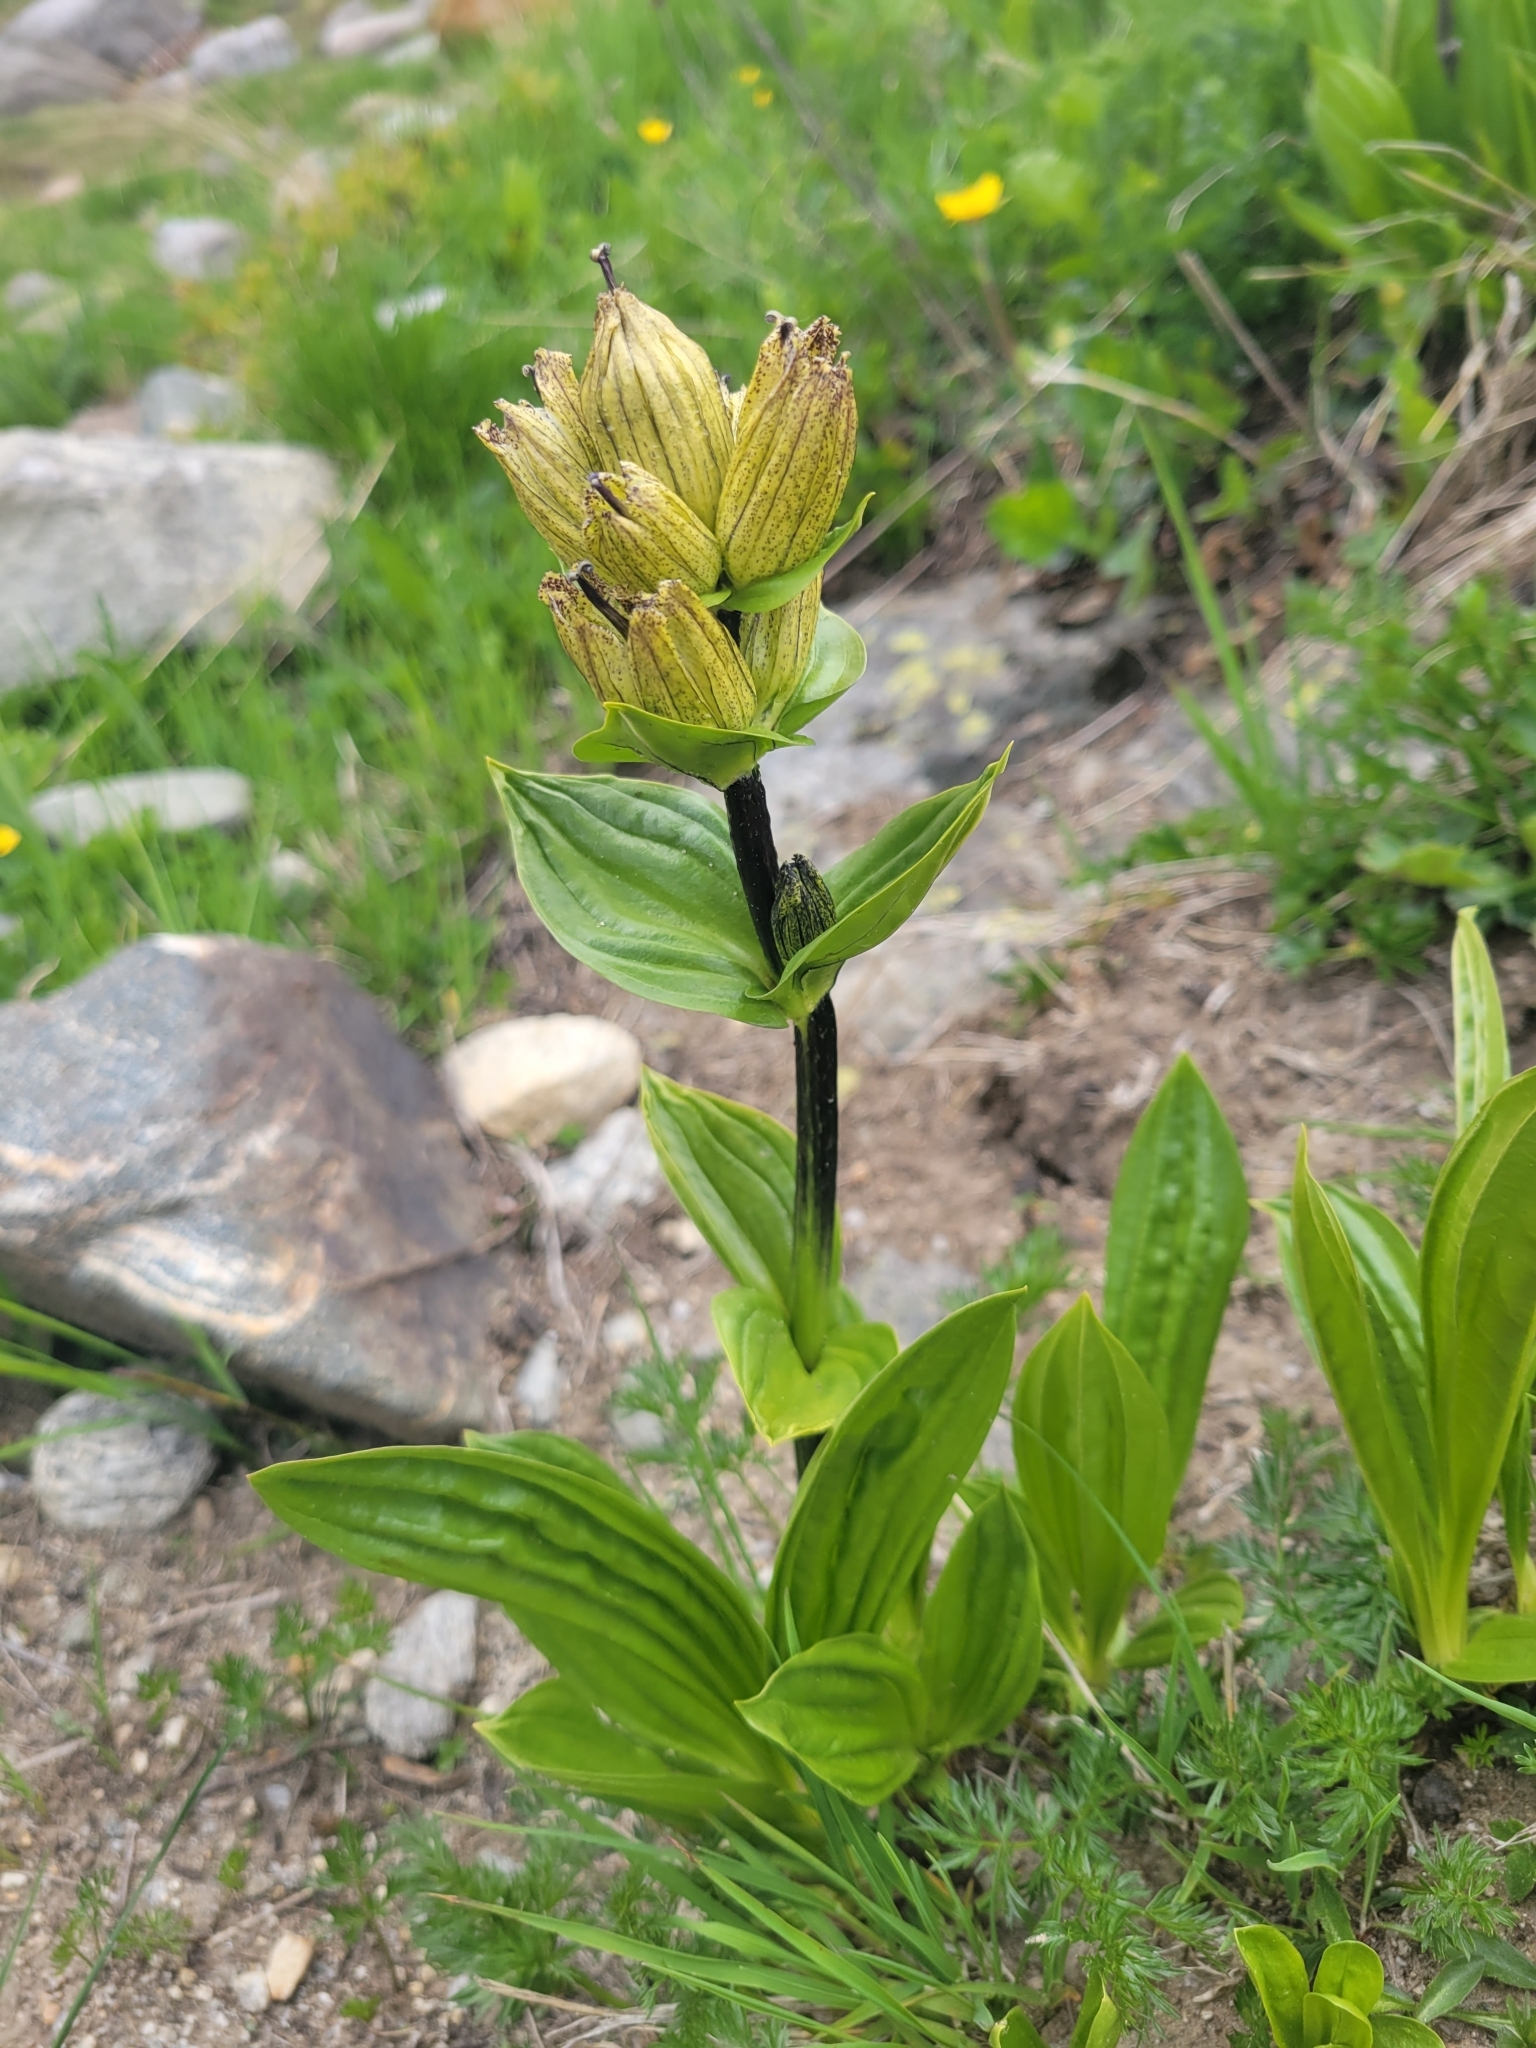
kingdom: Plantae
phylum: Tracheophyta
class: Magnoliopsida
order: Gentianales
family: Gentianaceae
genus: Gentiana
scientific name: Gentiana punctata
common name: Spotted gentian
